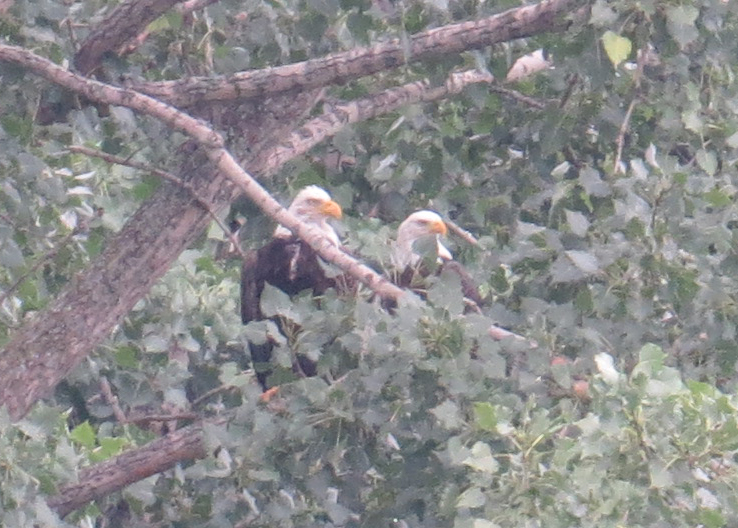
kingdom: Animalia
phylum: Chordata
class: Aves
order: Accipitriformes
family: Accipitridae
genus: Haliaeetus
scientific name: Haliaeetus leucocephalus
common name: Bald eagle
